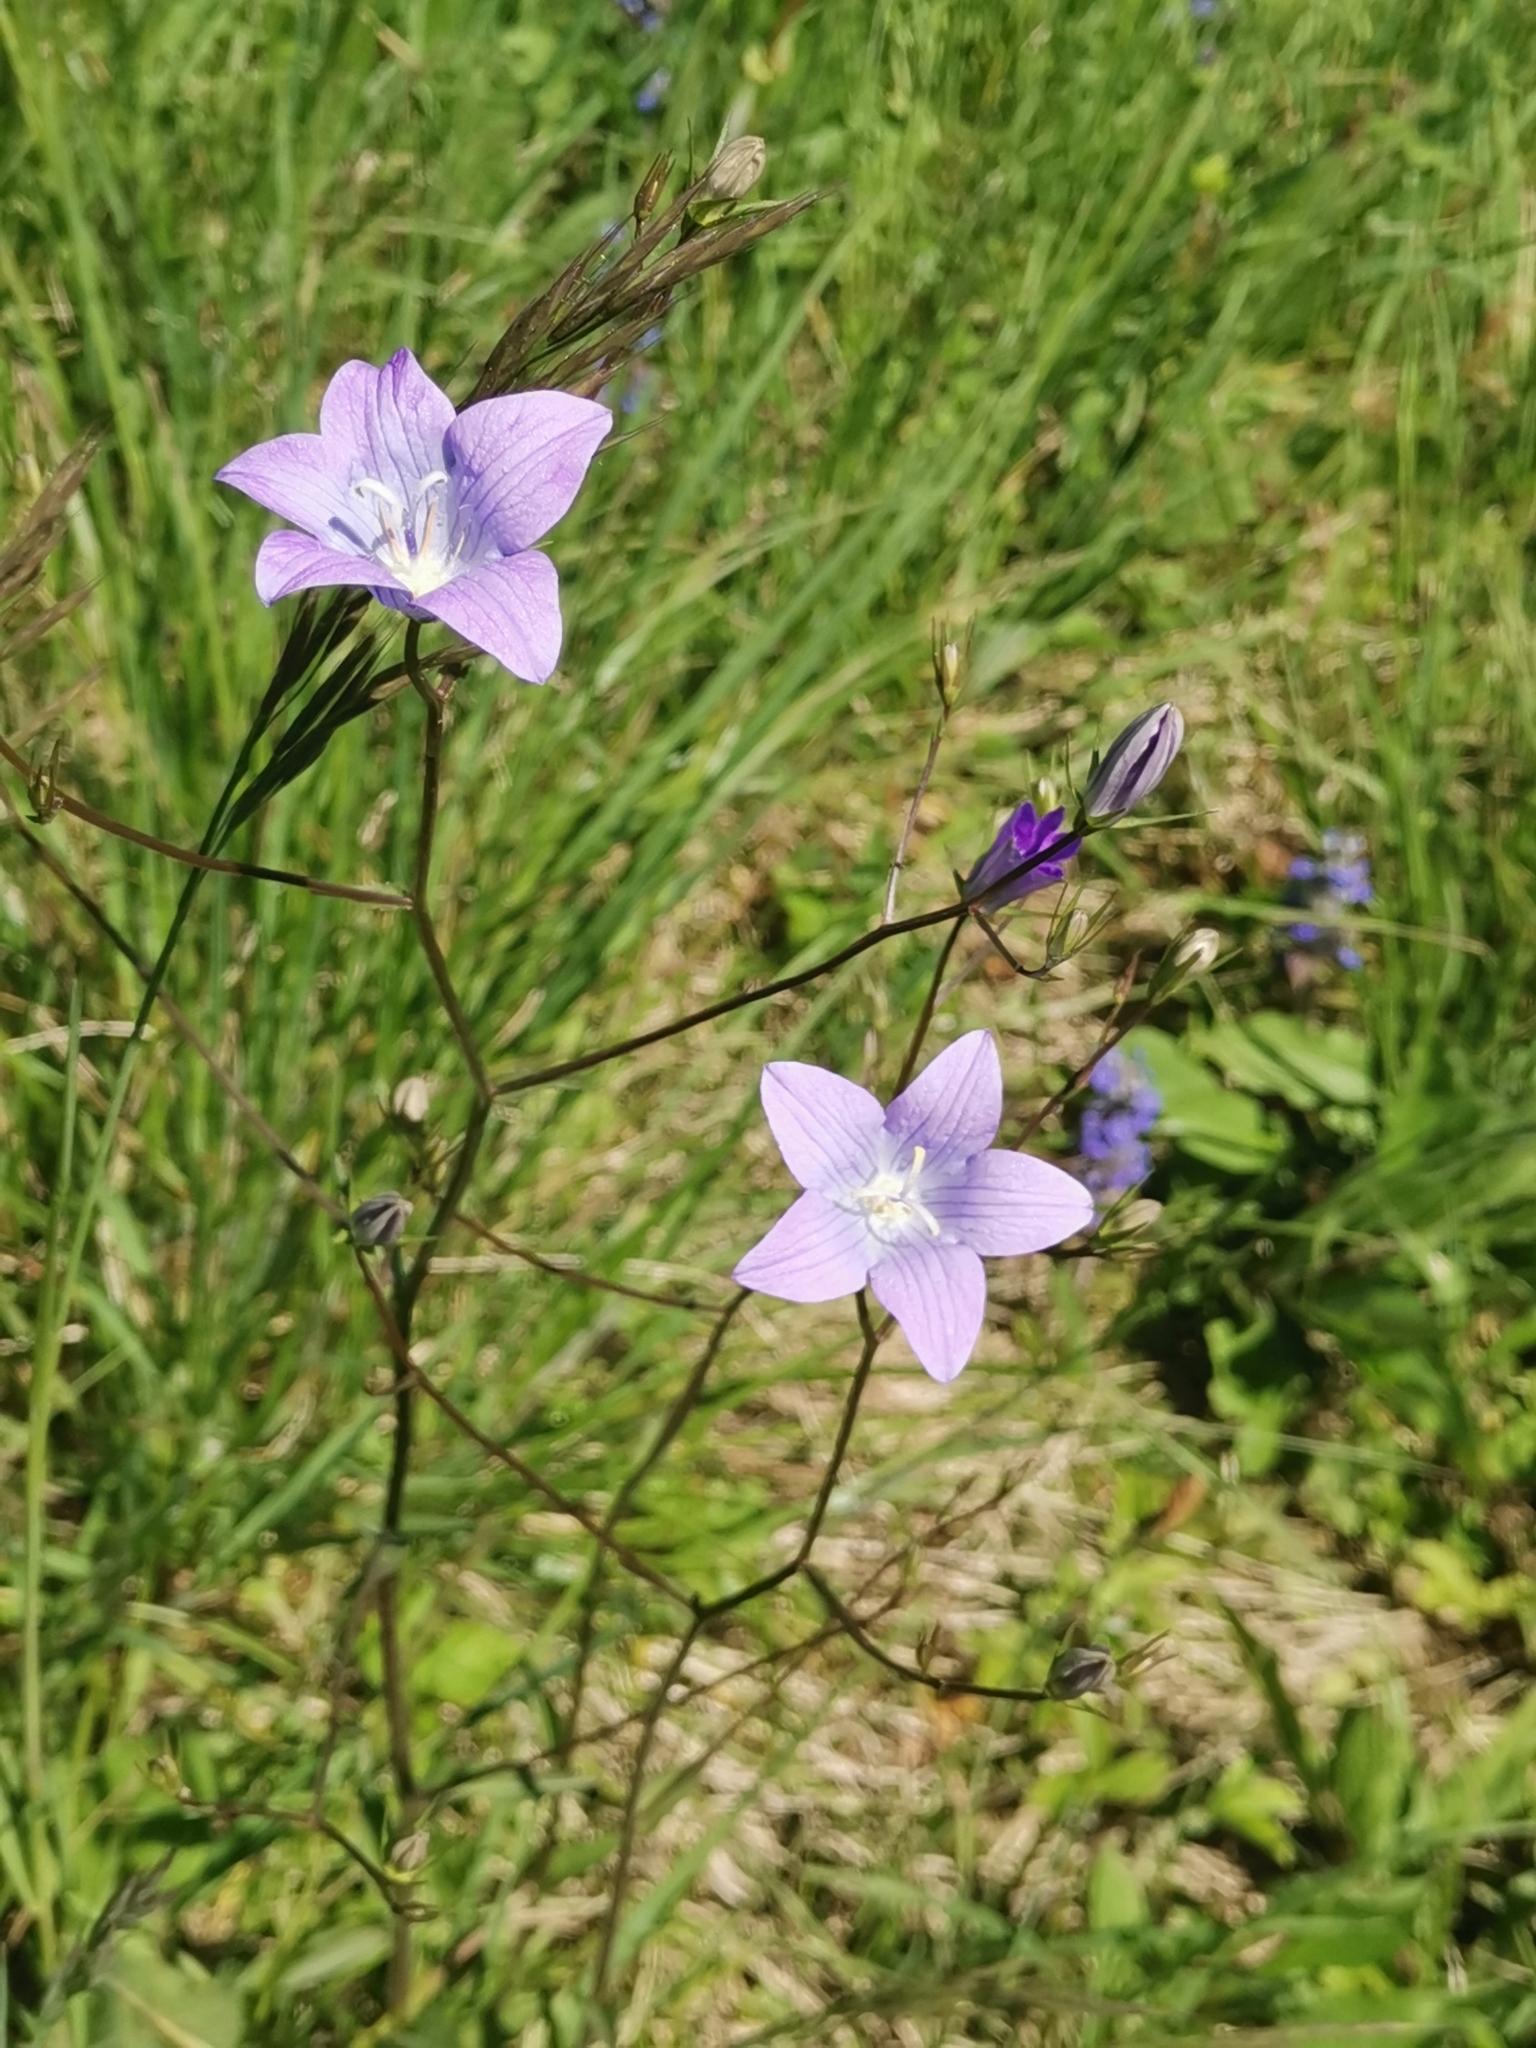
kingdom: Plantae
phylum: Tracheophyta
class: Magnoliopsida
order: Asterales
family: Campanulaceae
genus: Campanula
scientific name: Campanula patula
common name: Spreading bellflower
